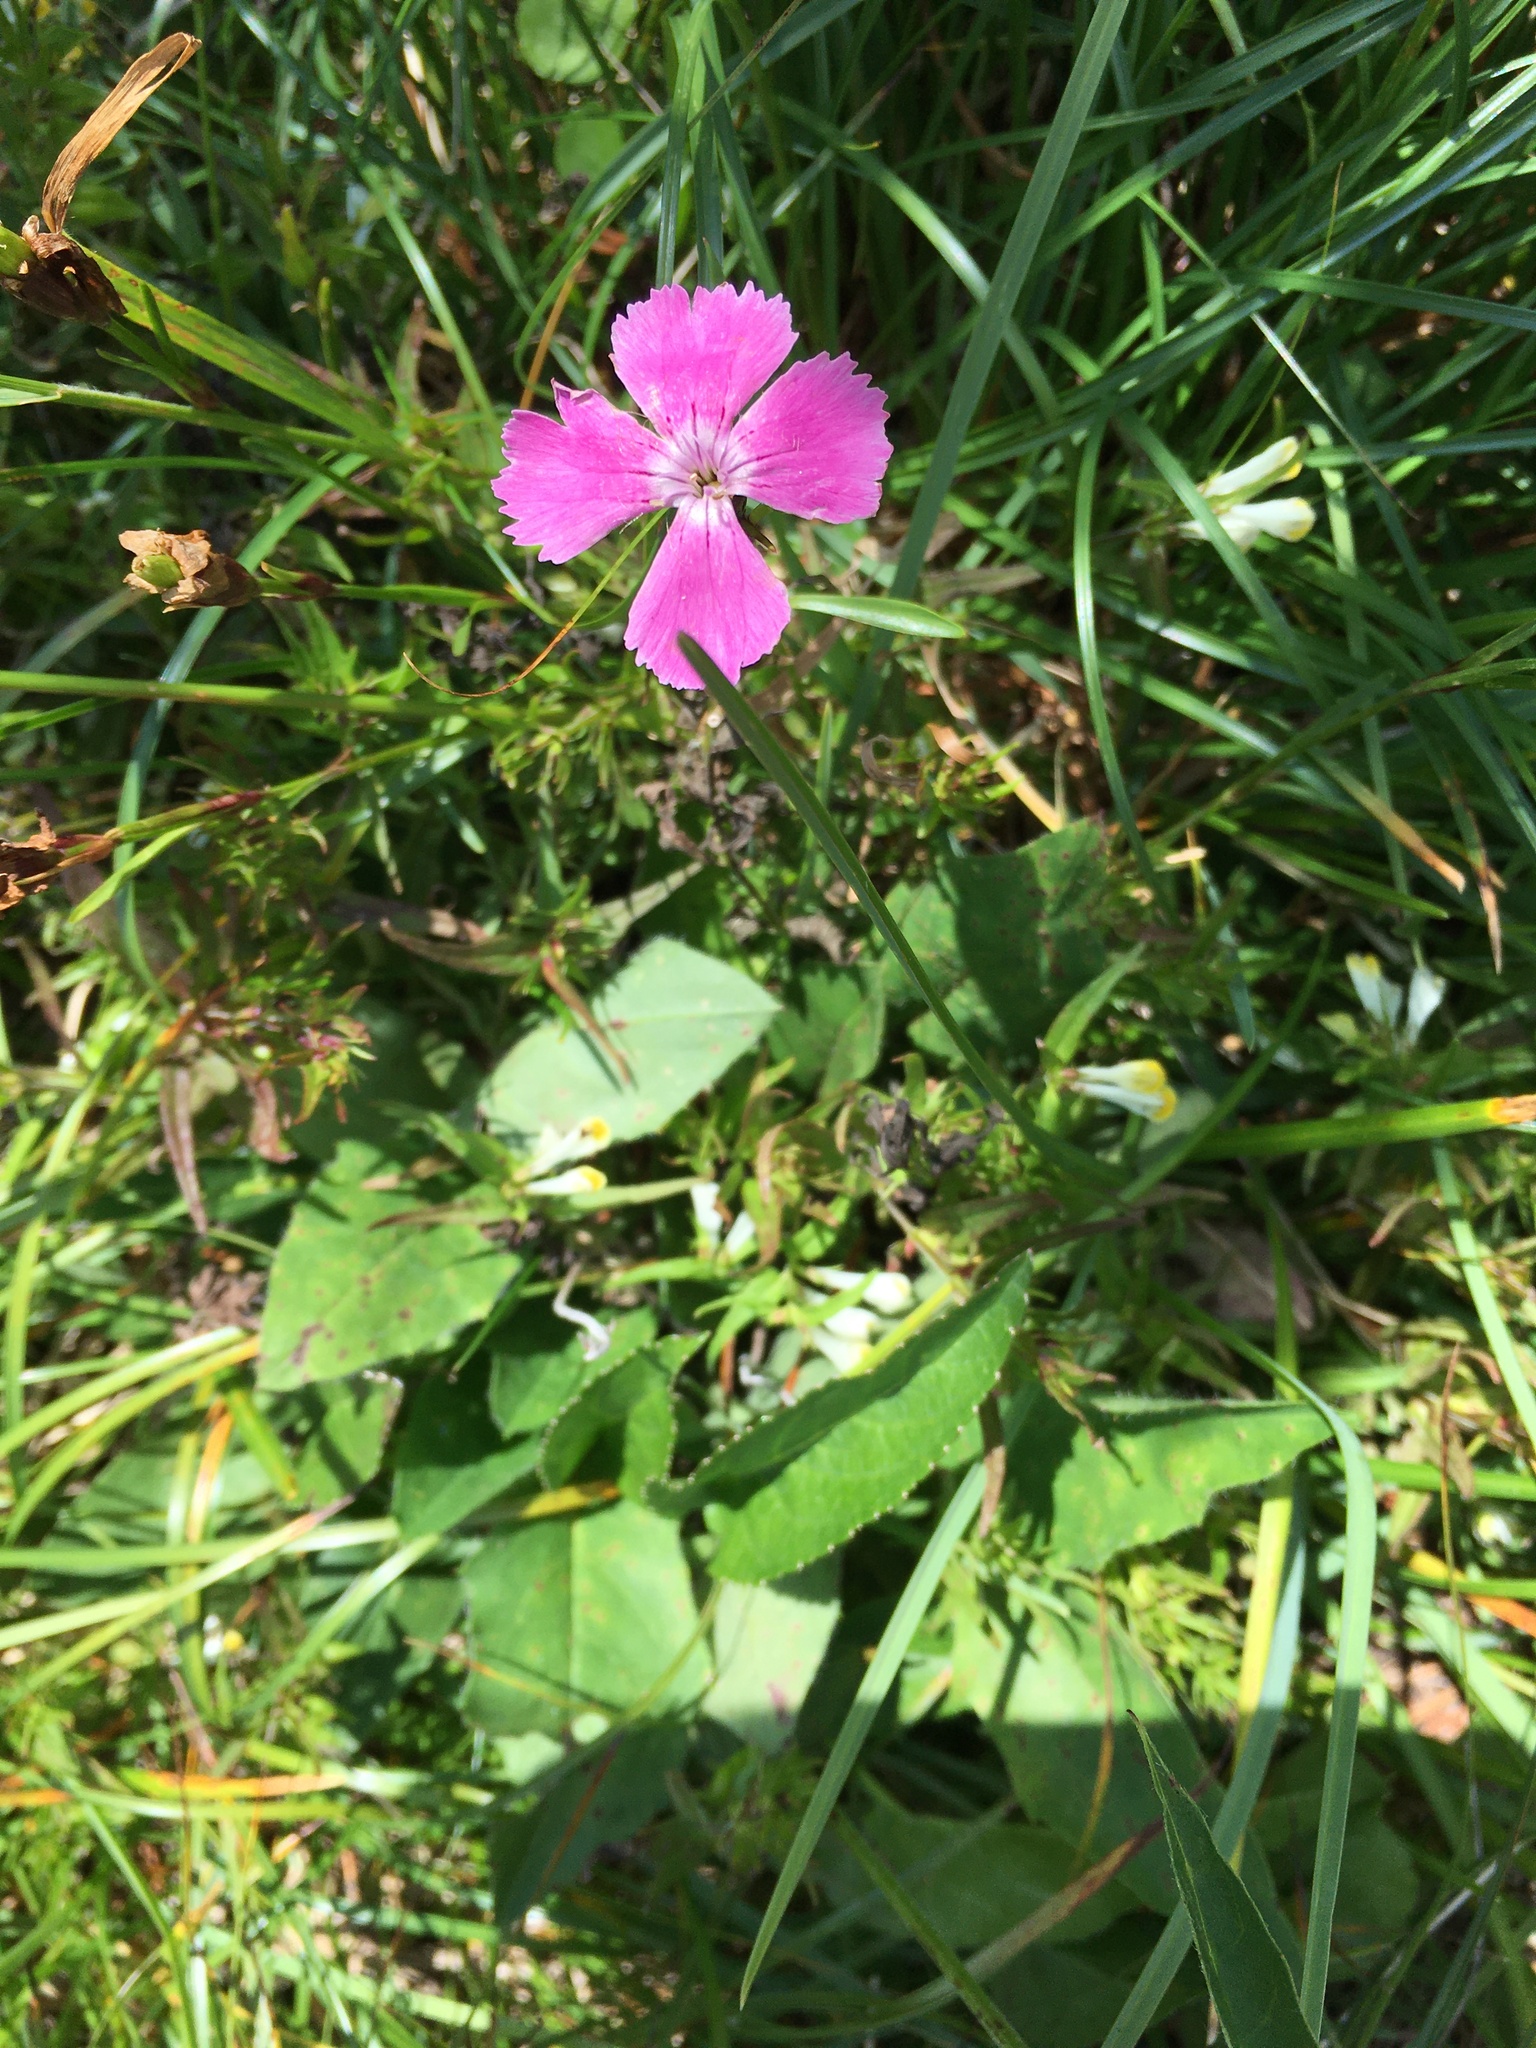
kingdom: Plantae
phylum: Tracheophyta
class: Magnoliopsida
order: Caryophyllales
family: Caryophyllaceae
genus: Dianthus
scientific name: Dianthus alpinus
